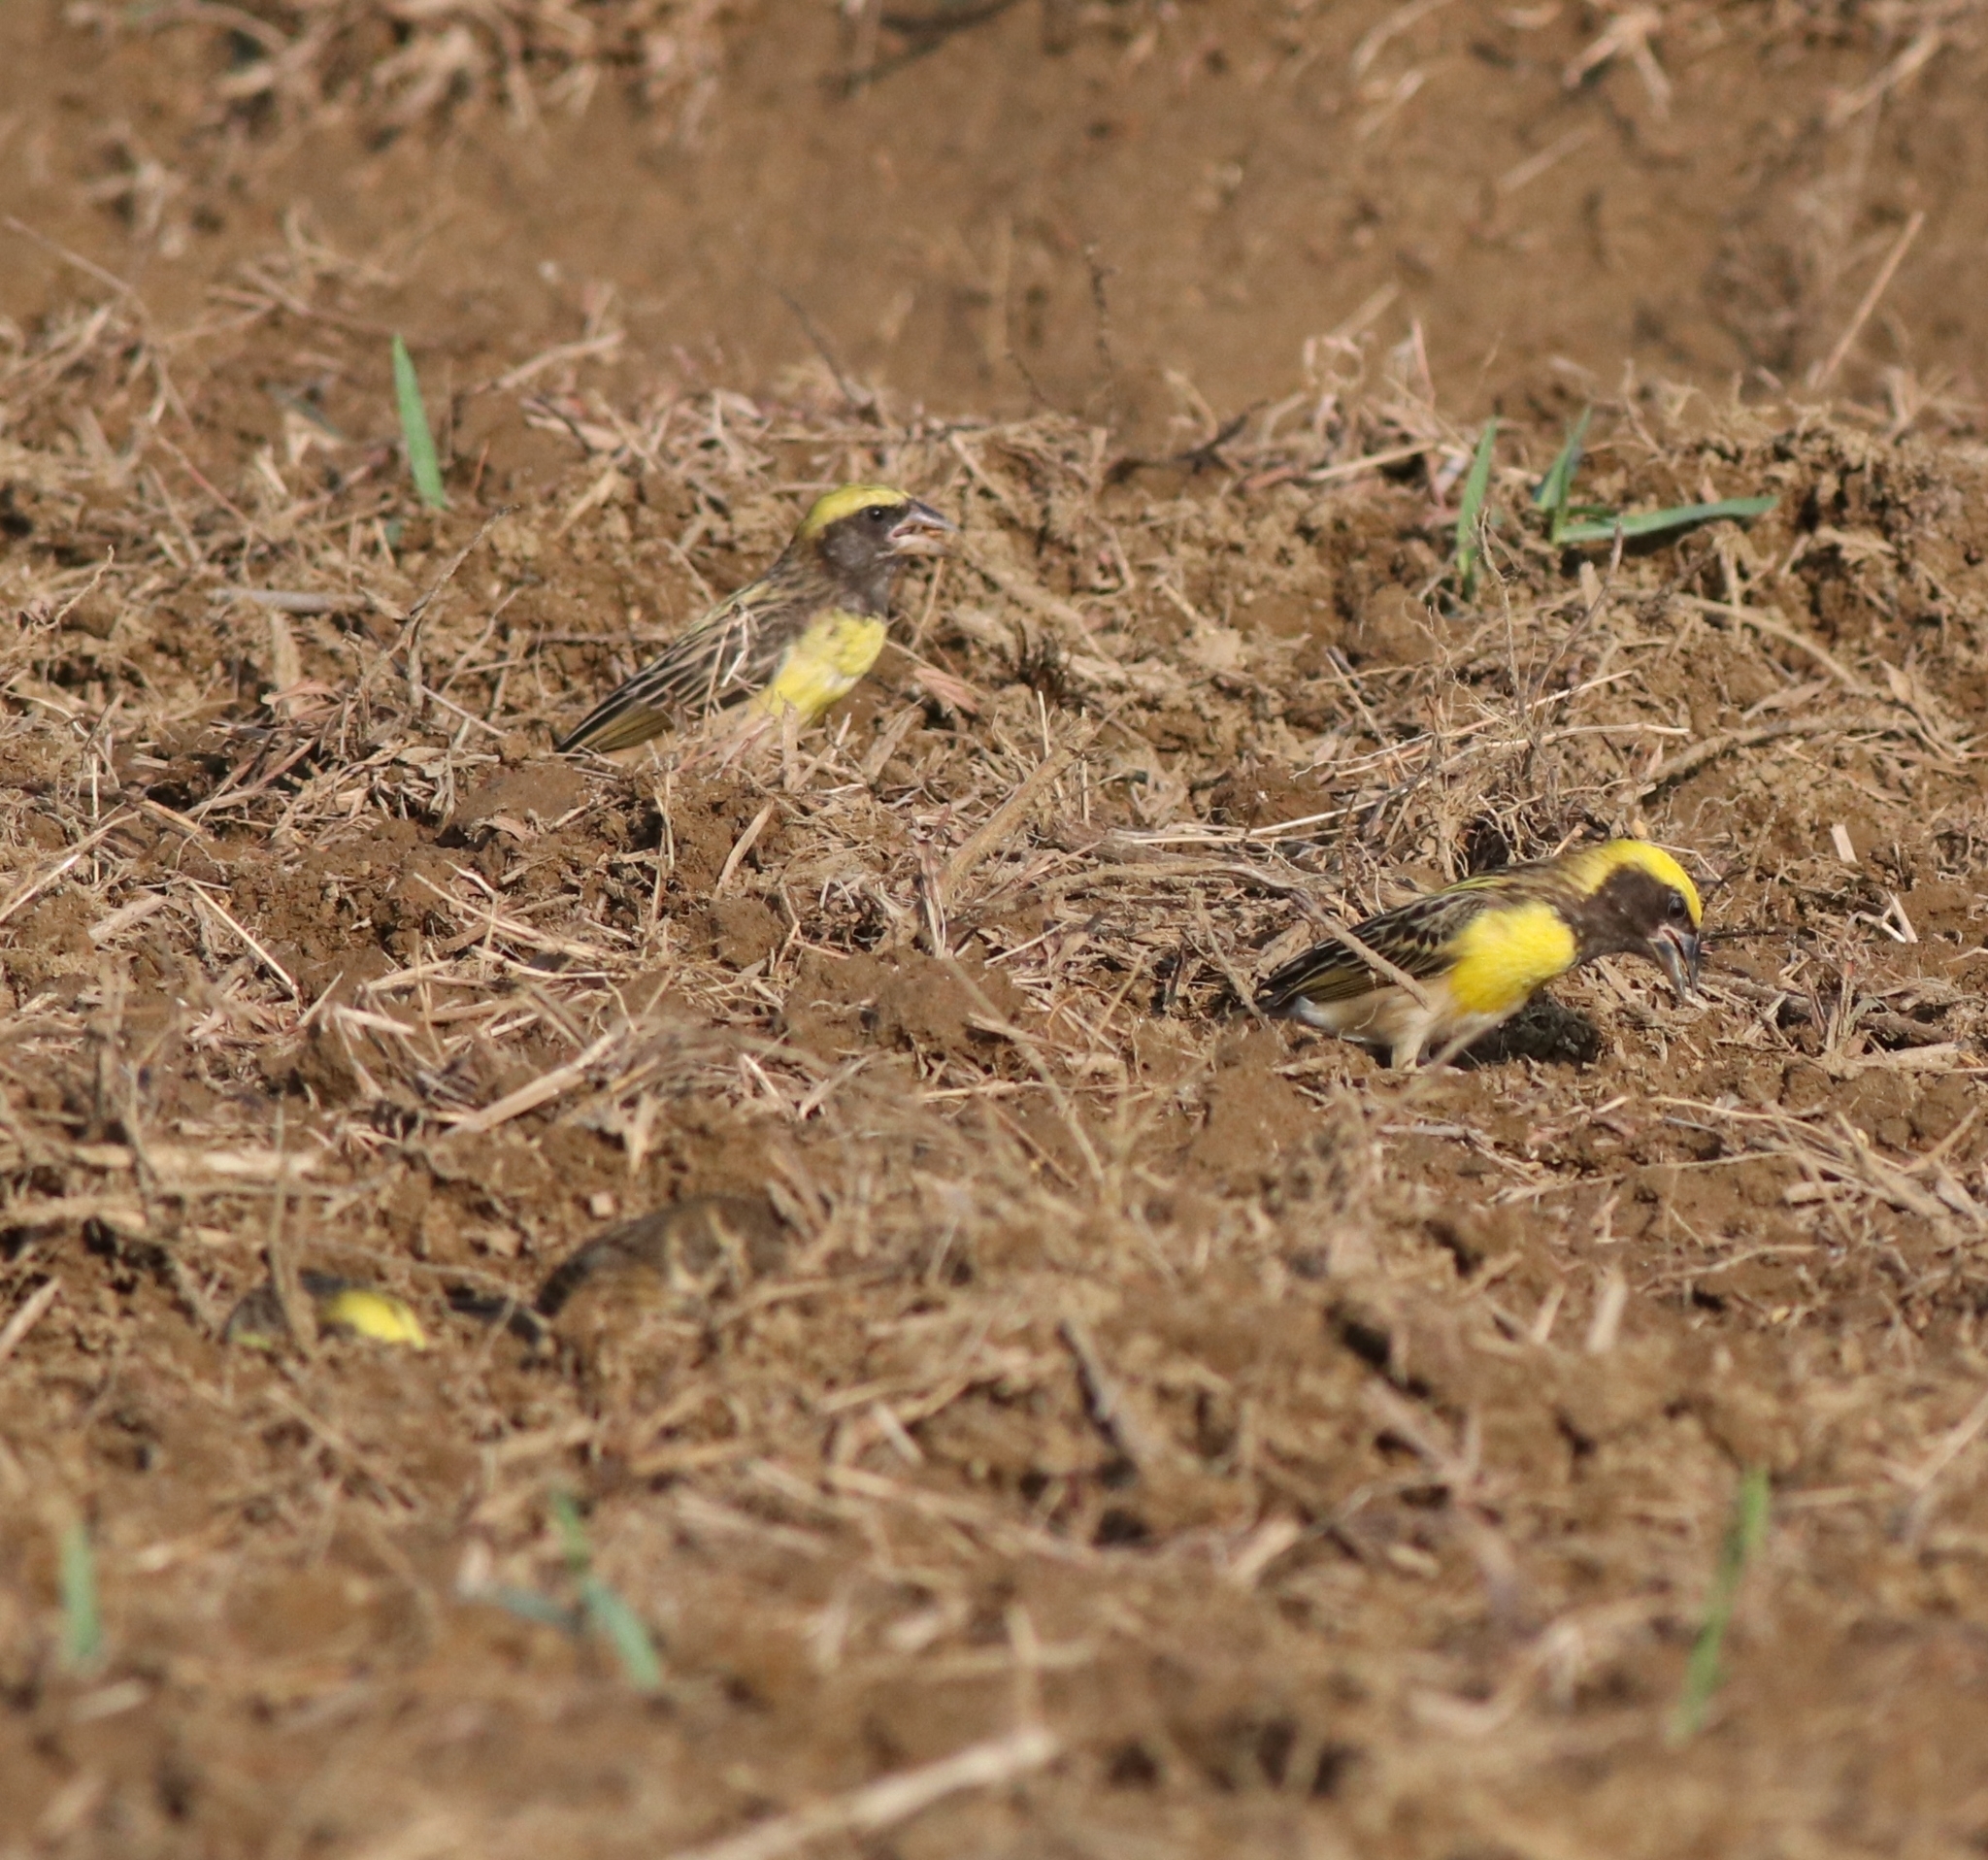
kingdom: Animalia
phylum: Chordata
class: Aves
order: Passeriformes
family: Ploceidae
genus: Ploceus
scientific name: Ploceus philippinus
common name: Baya weaver
